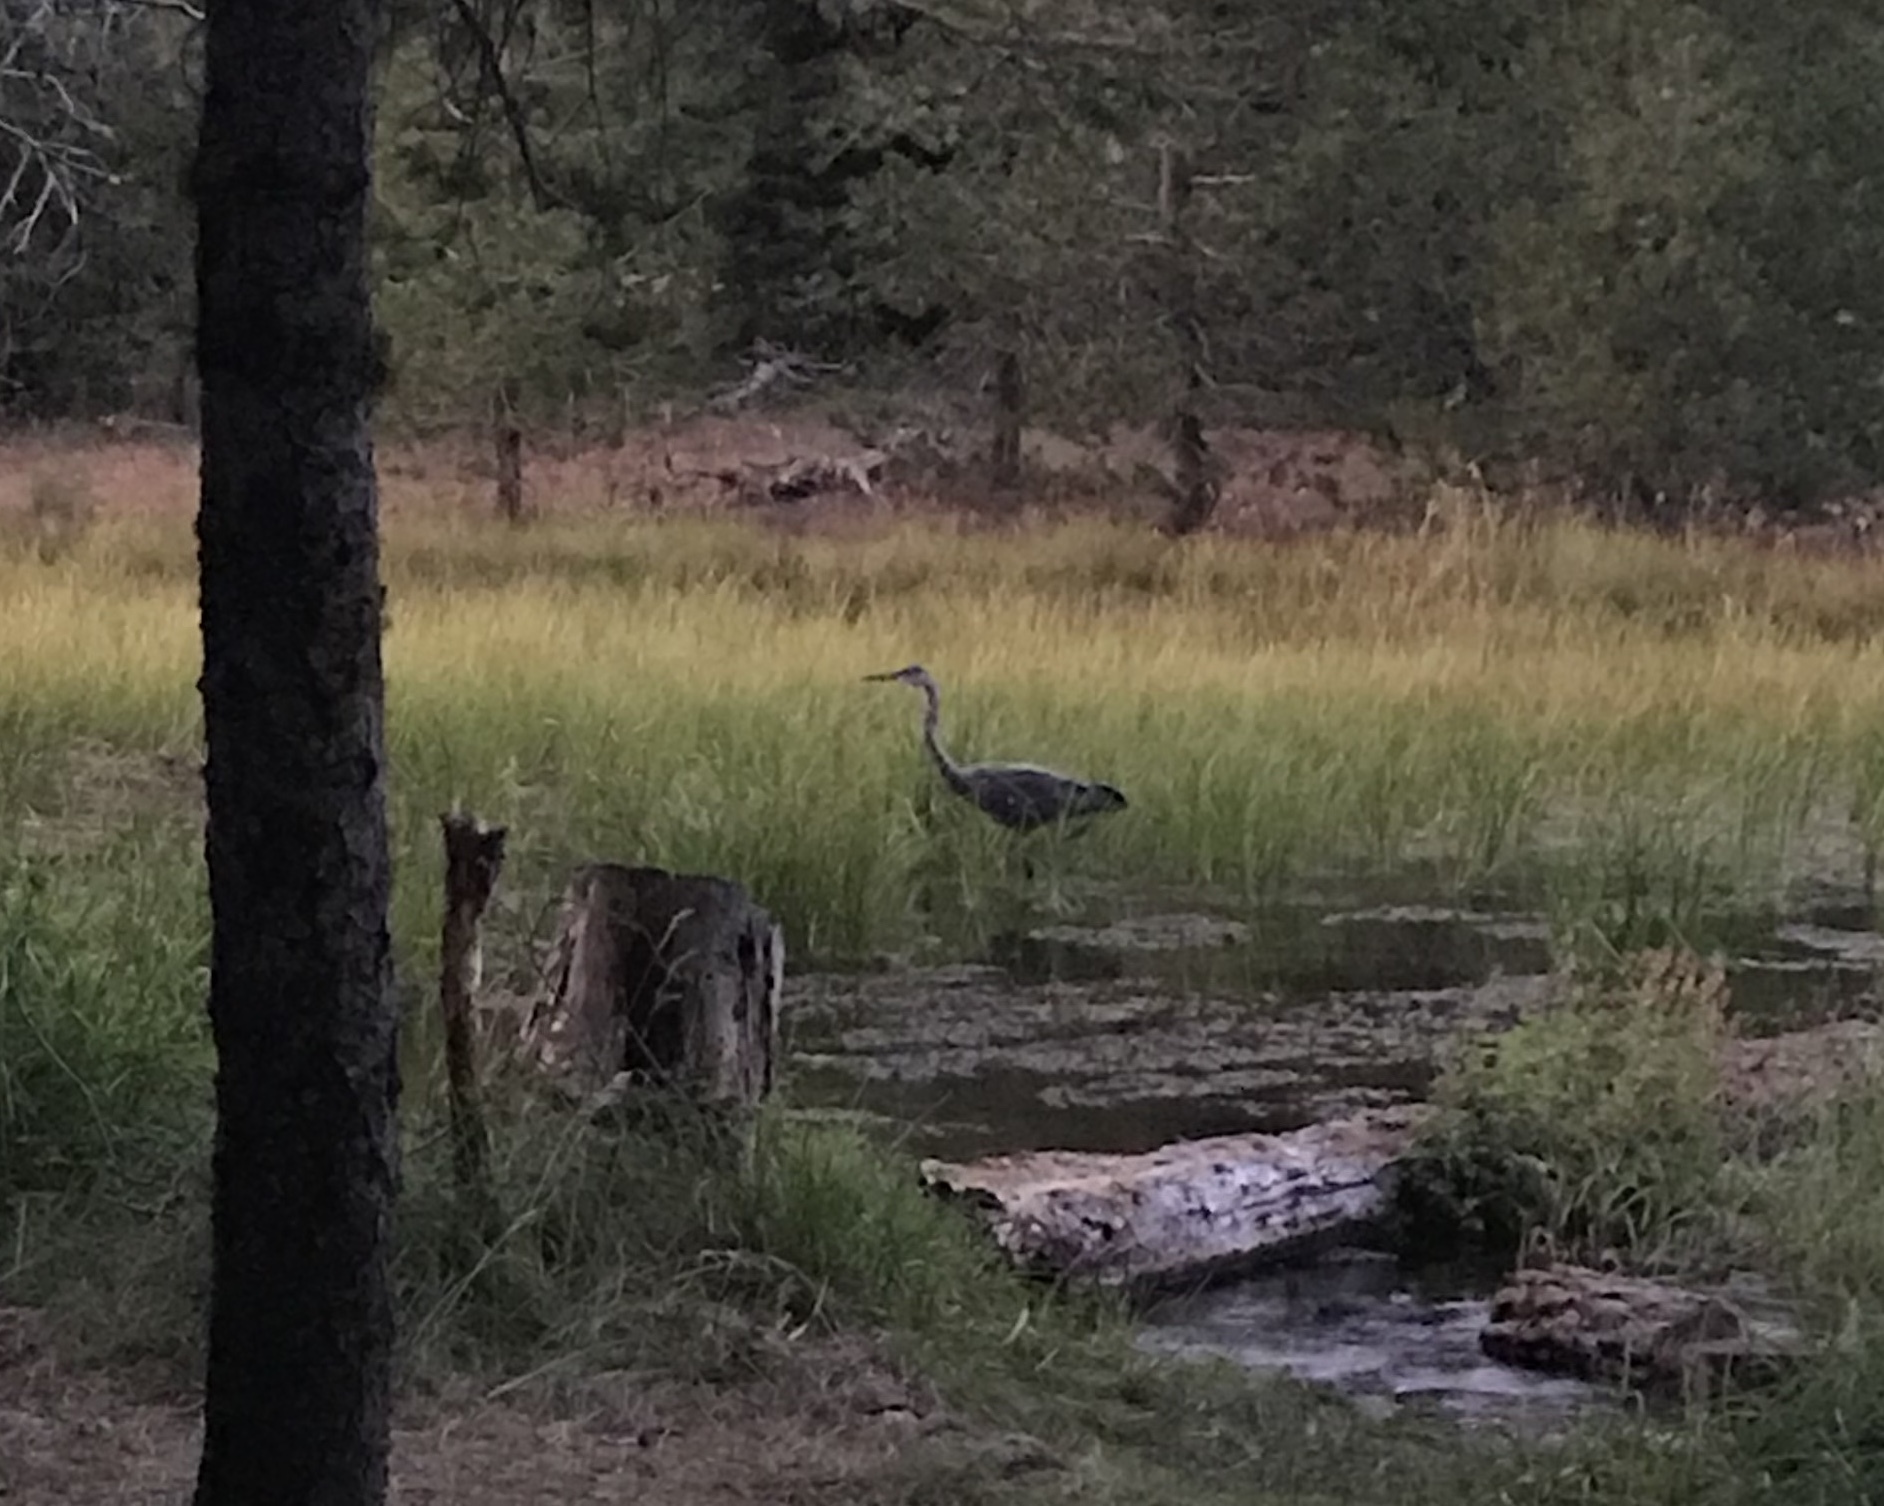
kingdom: Animalia
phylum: Chordata
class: Aves
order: Pelecaniformes
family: Ardeidae
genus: Ardea
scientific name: Ardea herodias
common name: Great blue heron
